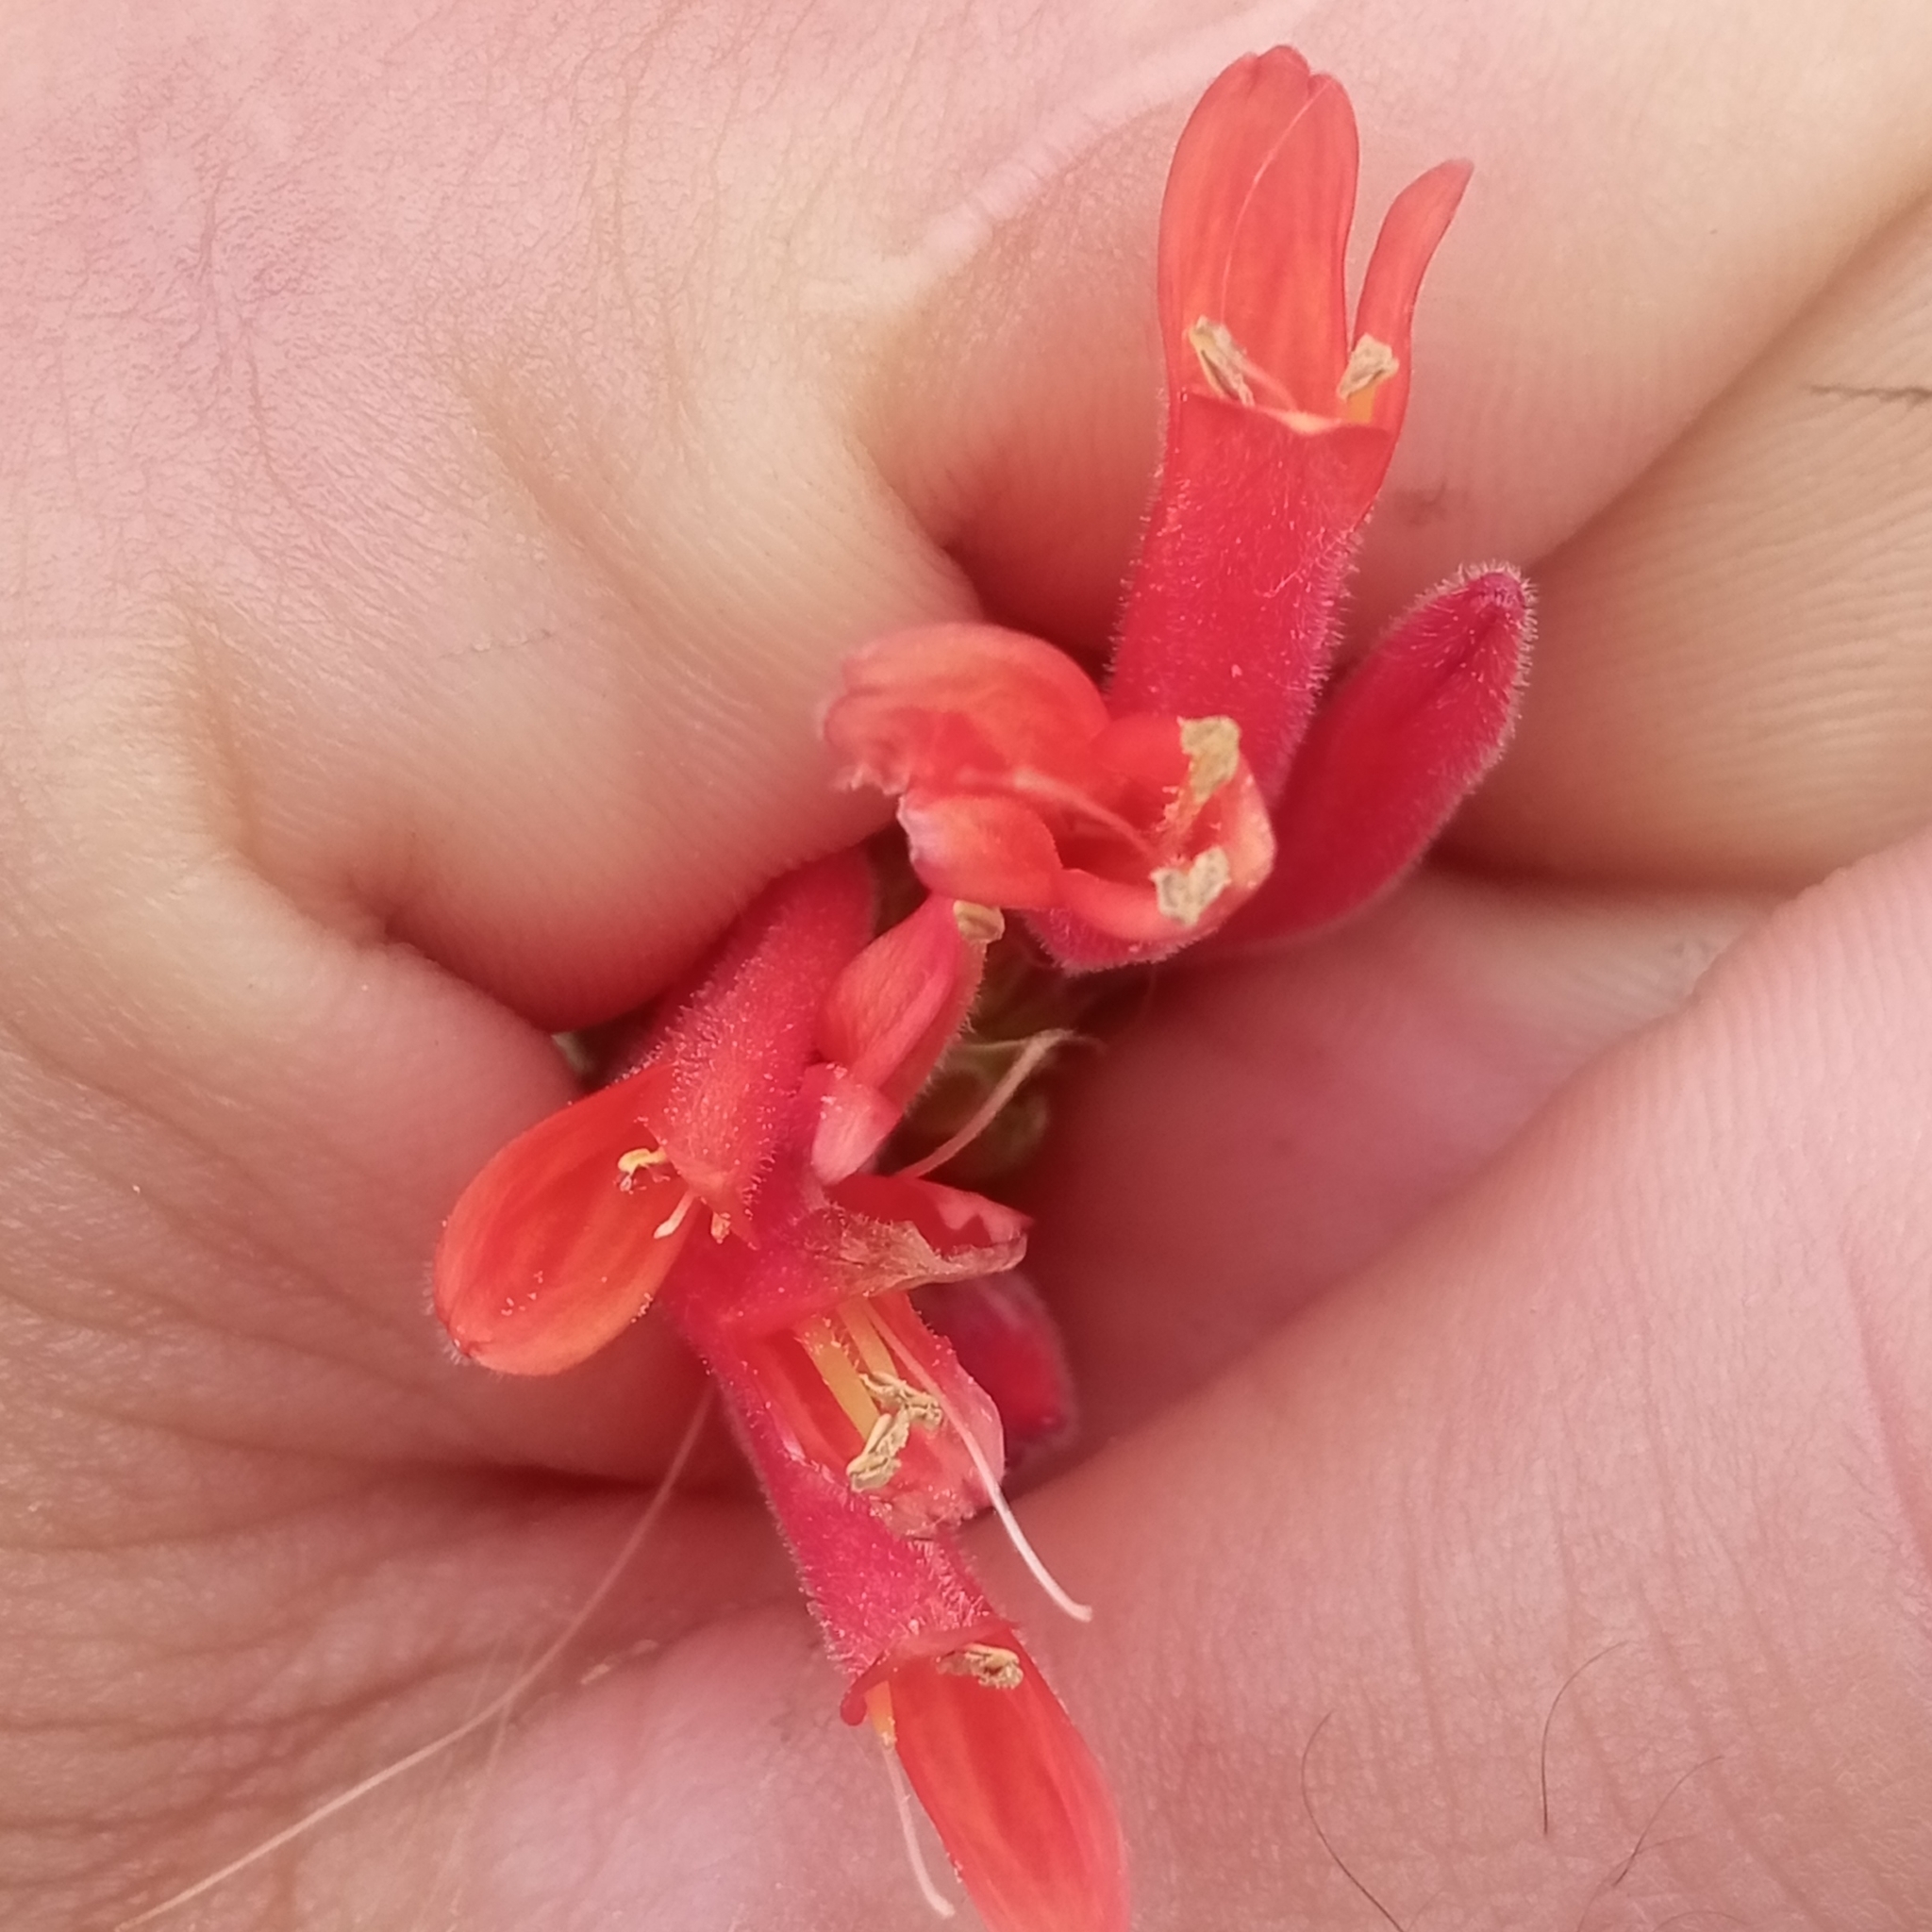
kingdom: Plantae
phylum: Tracheophyta
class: Magnoliopsida
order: Lamiales
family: Acanthaceae
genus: Dicliptera
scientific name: Dicliptera squarrosa
